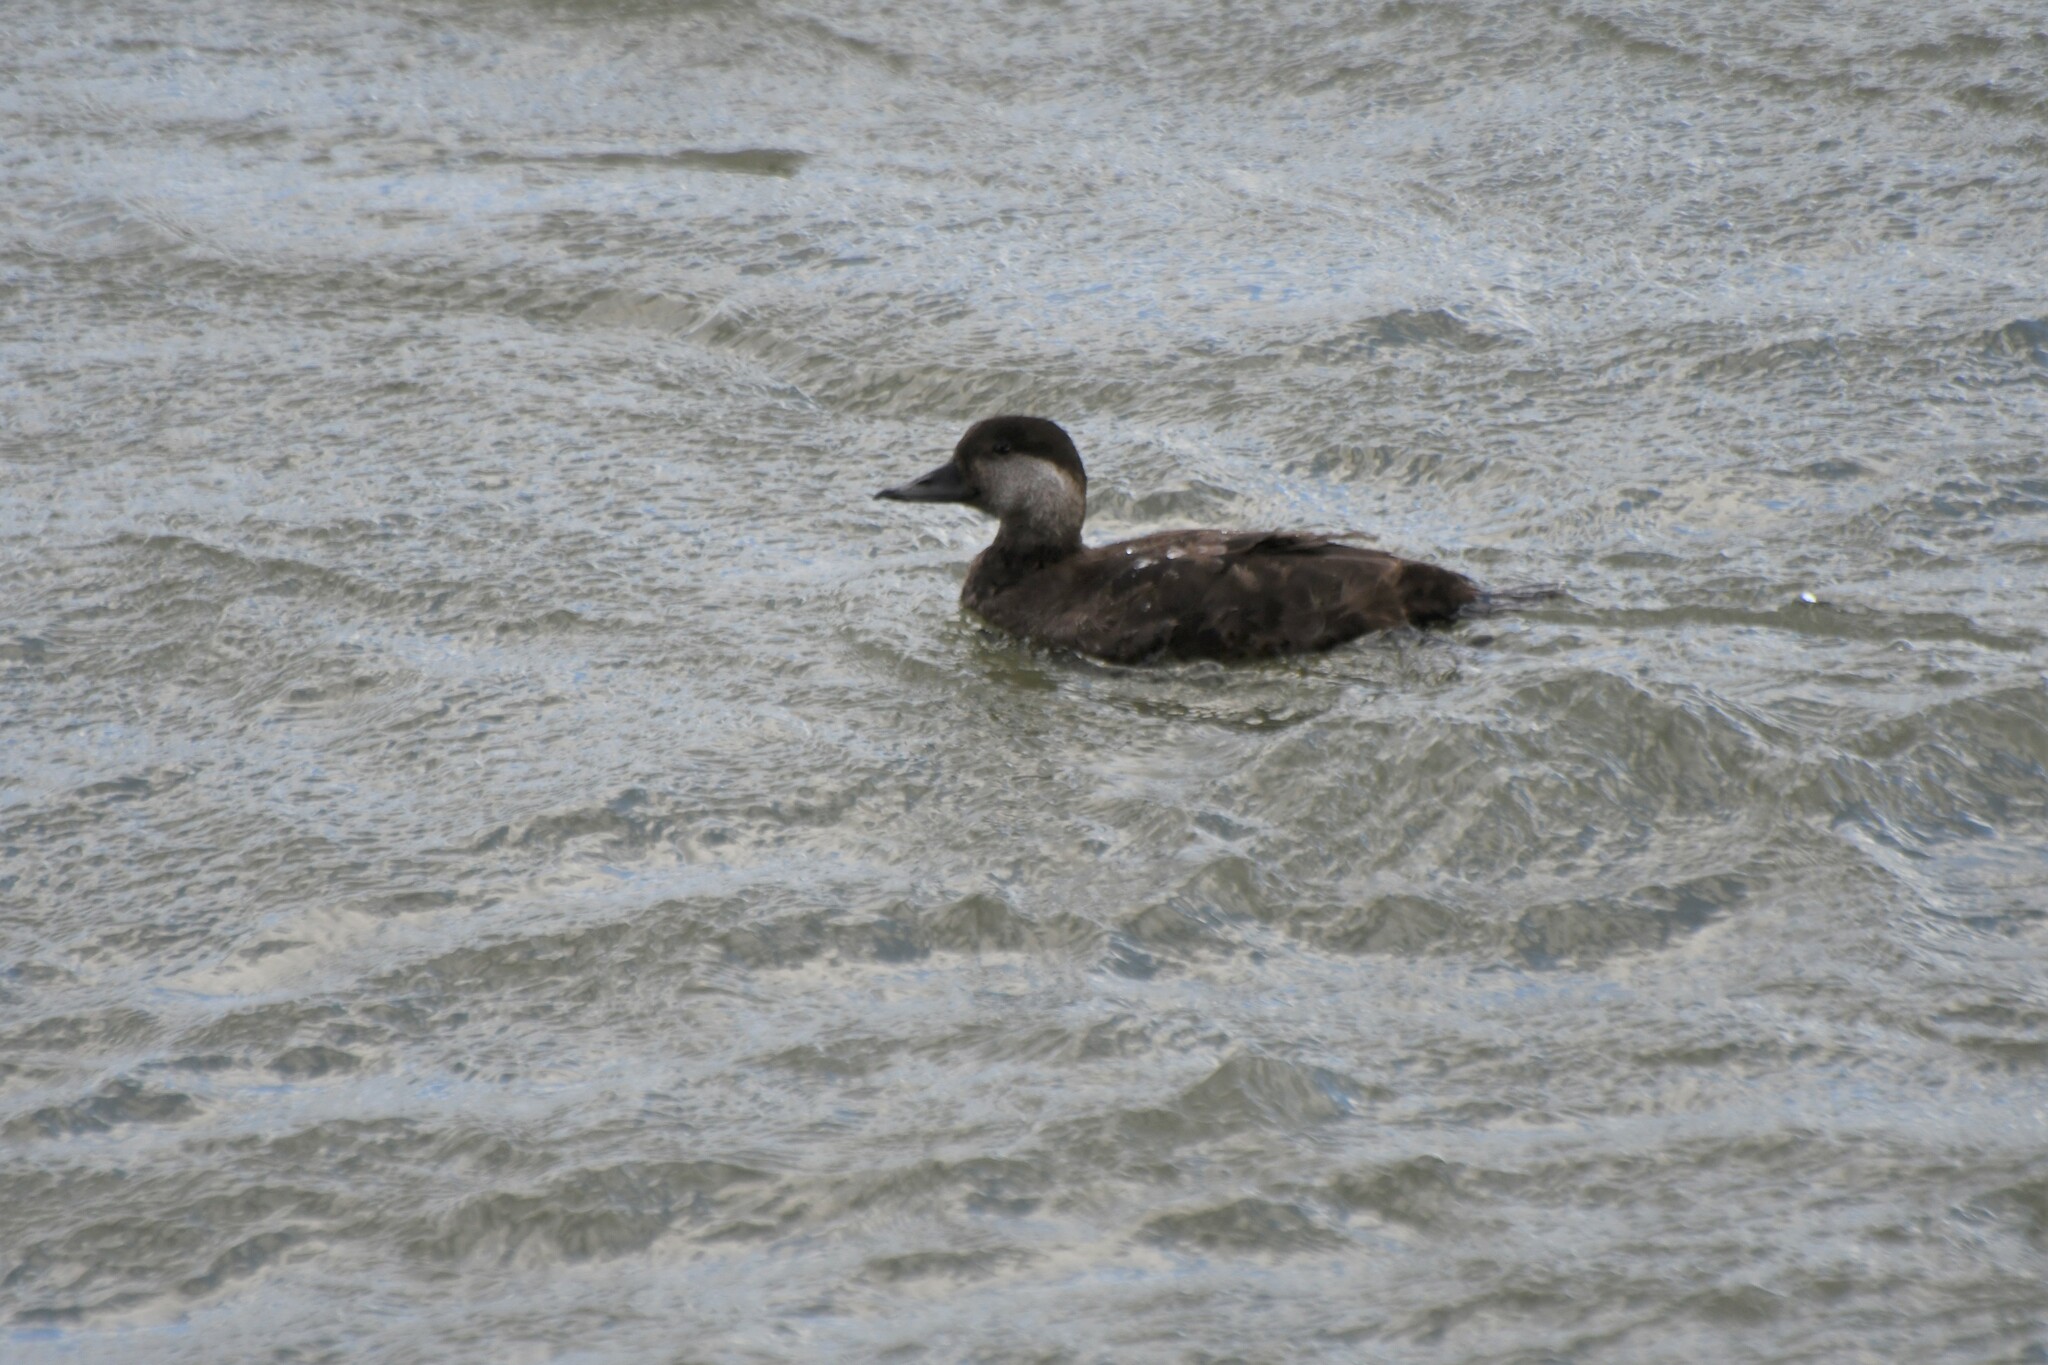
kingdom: Animalia
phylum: Chordata
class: Aves
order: Anseriformes
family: Anatidae
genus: Melanitta
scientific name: Melanitta americana
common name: Black scoter
